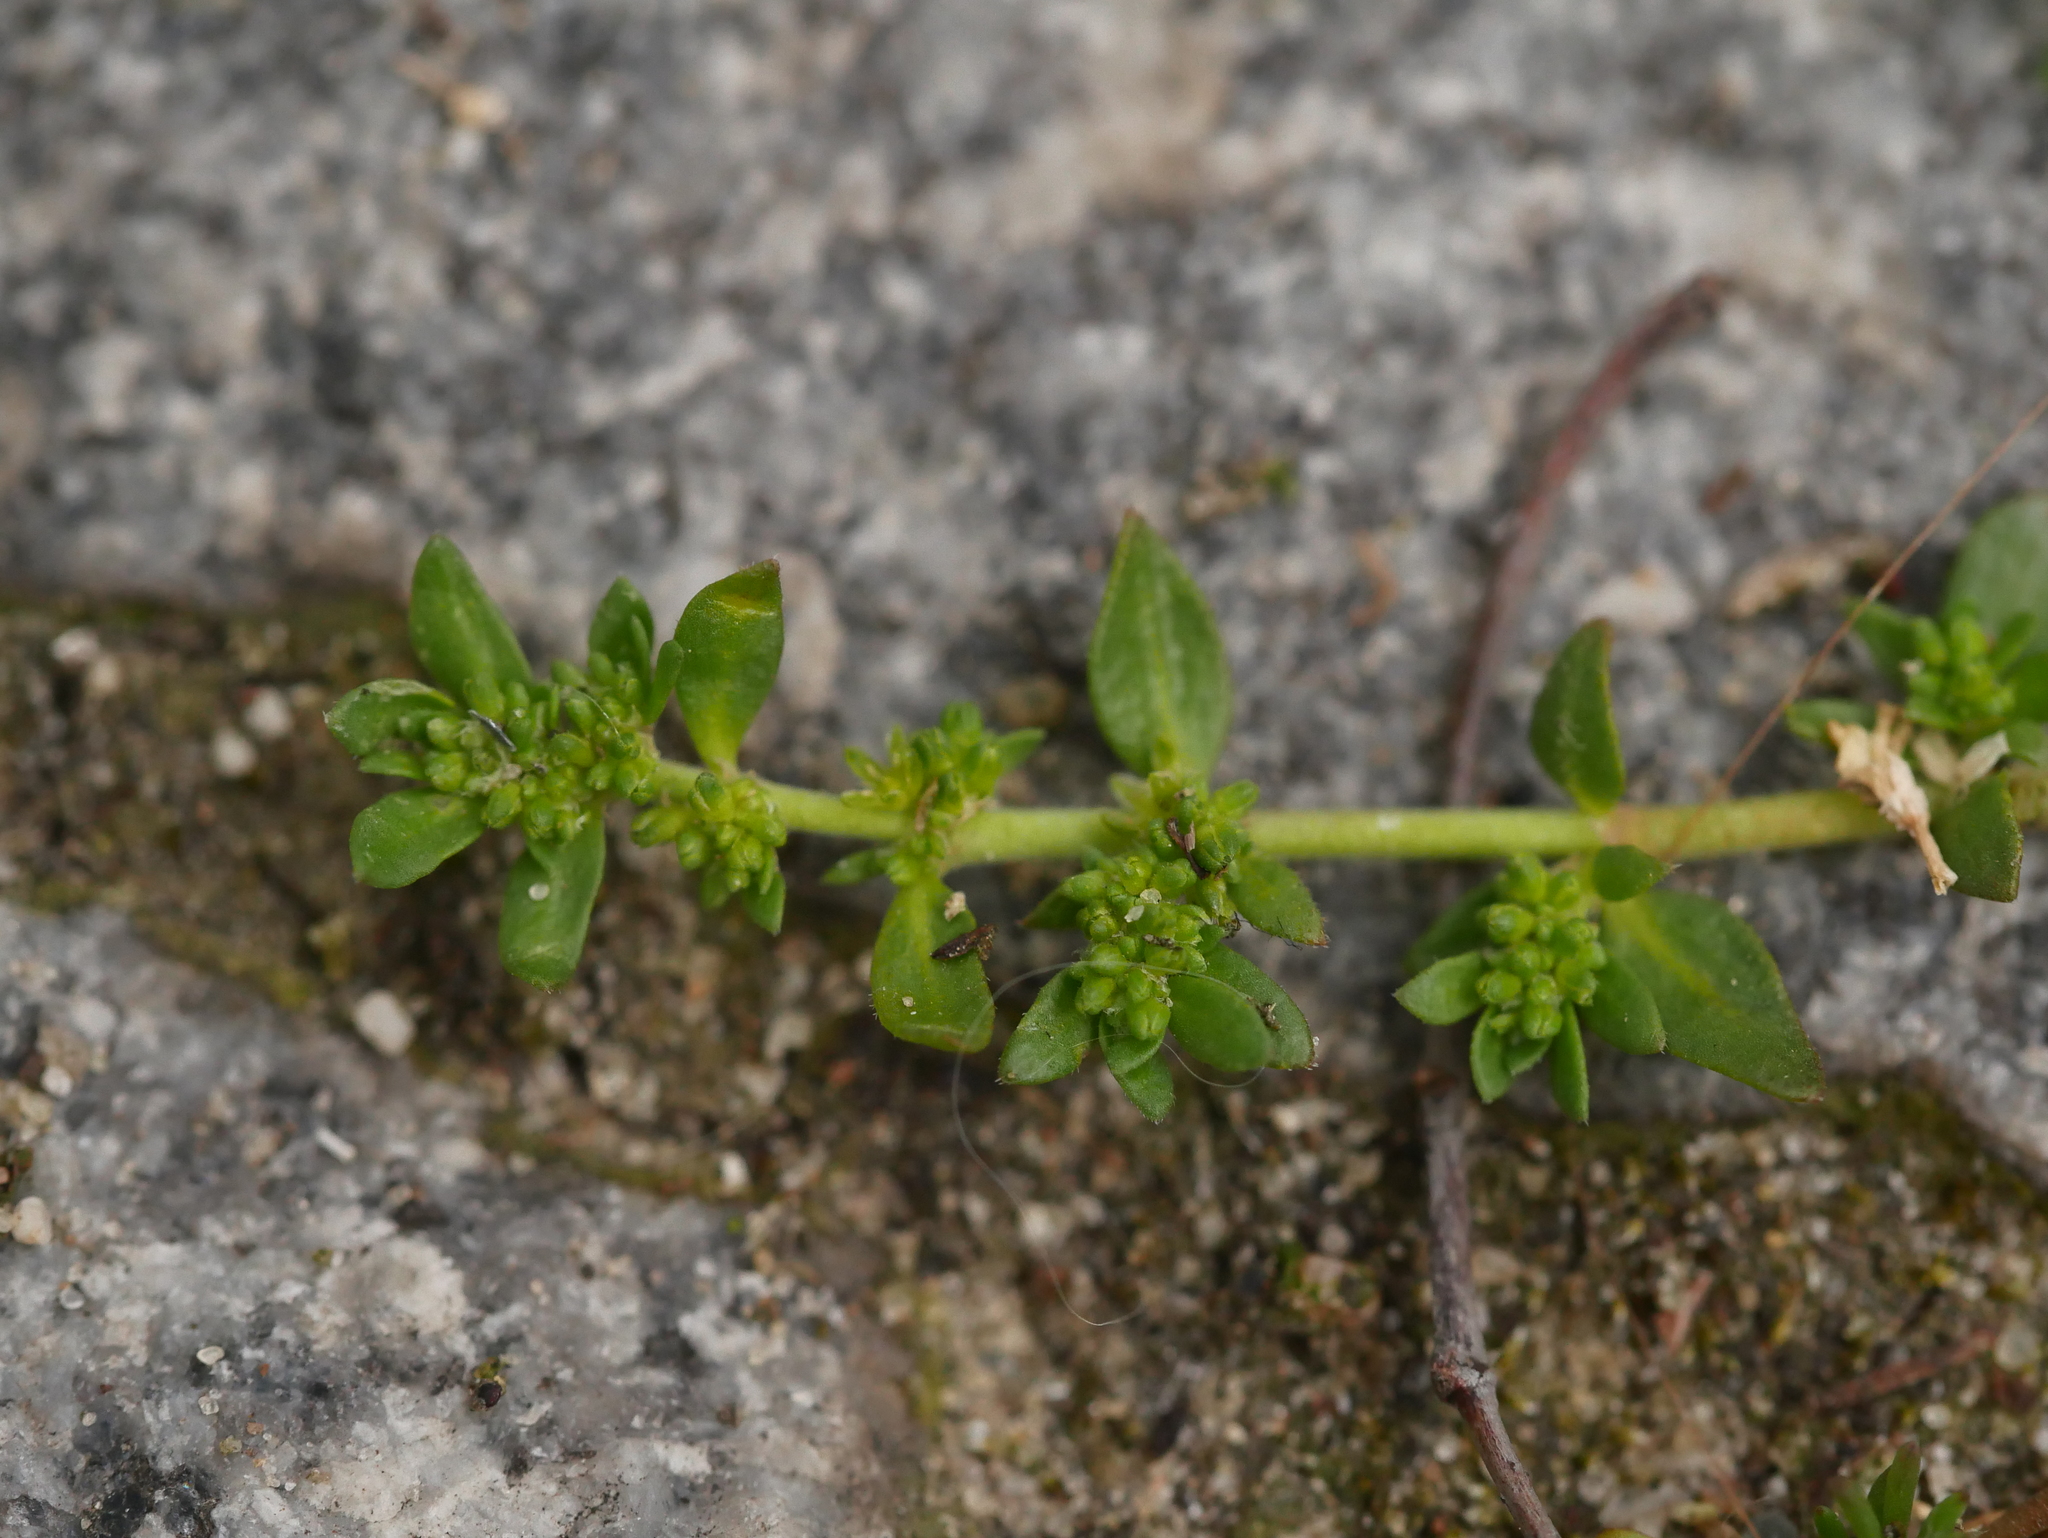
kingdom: Plantae
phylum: Tracheophyta
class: Magnoliopsida
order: Caryophyllales
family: Caryophyllaceae
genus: Herniaria
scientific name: Herniaria glabra
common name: Smooth rupturewort
